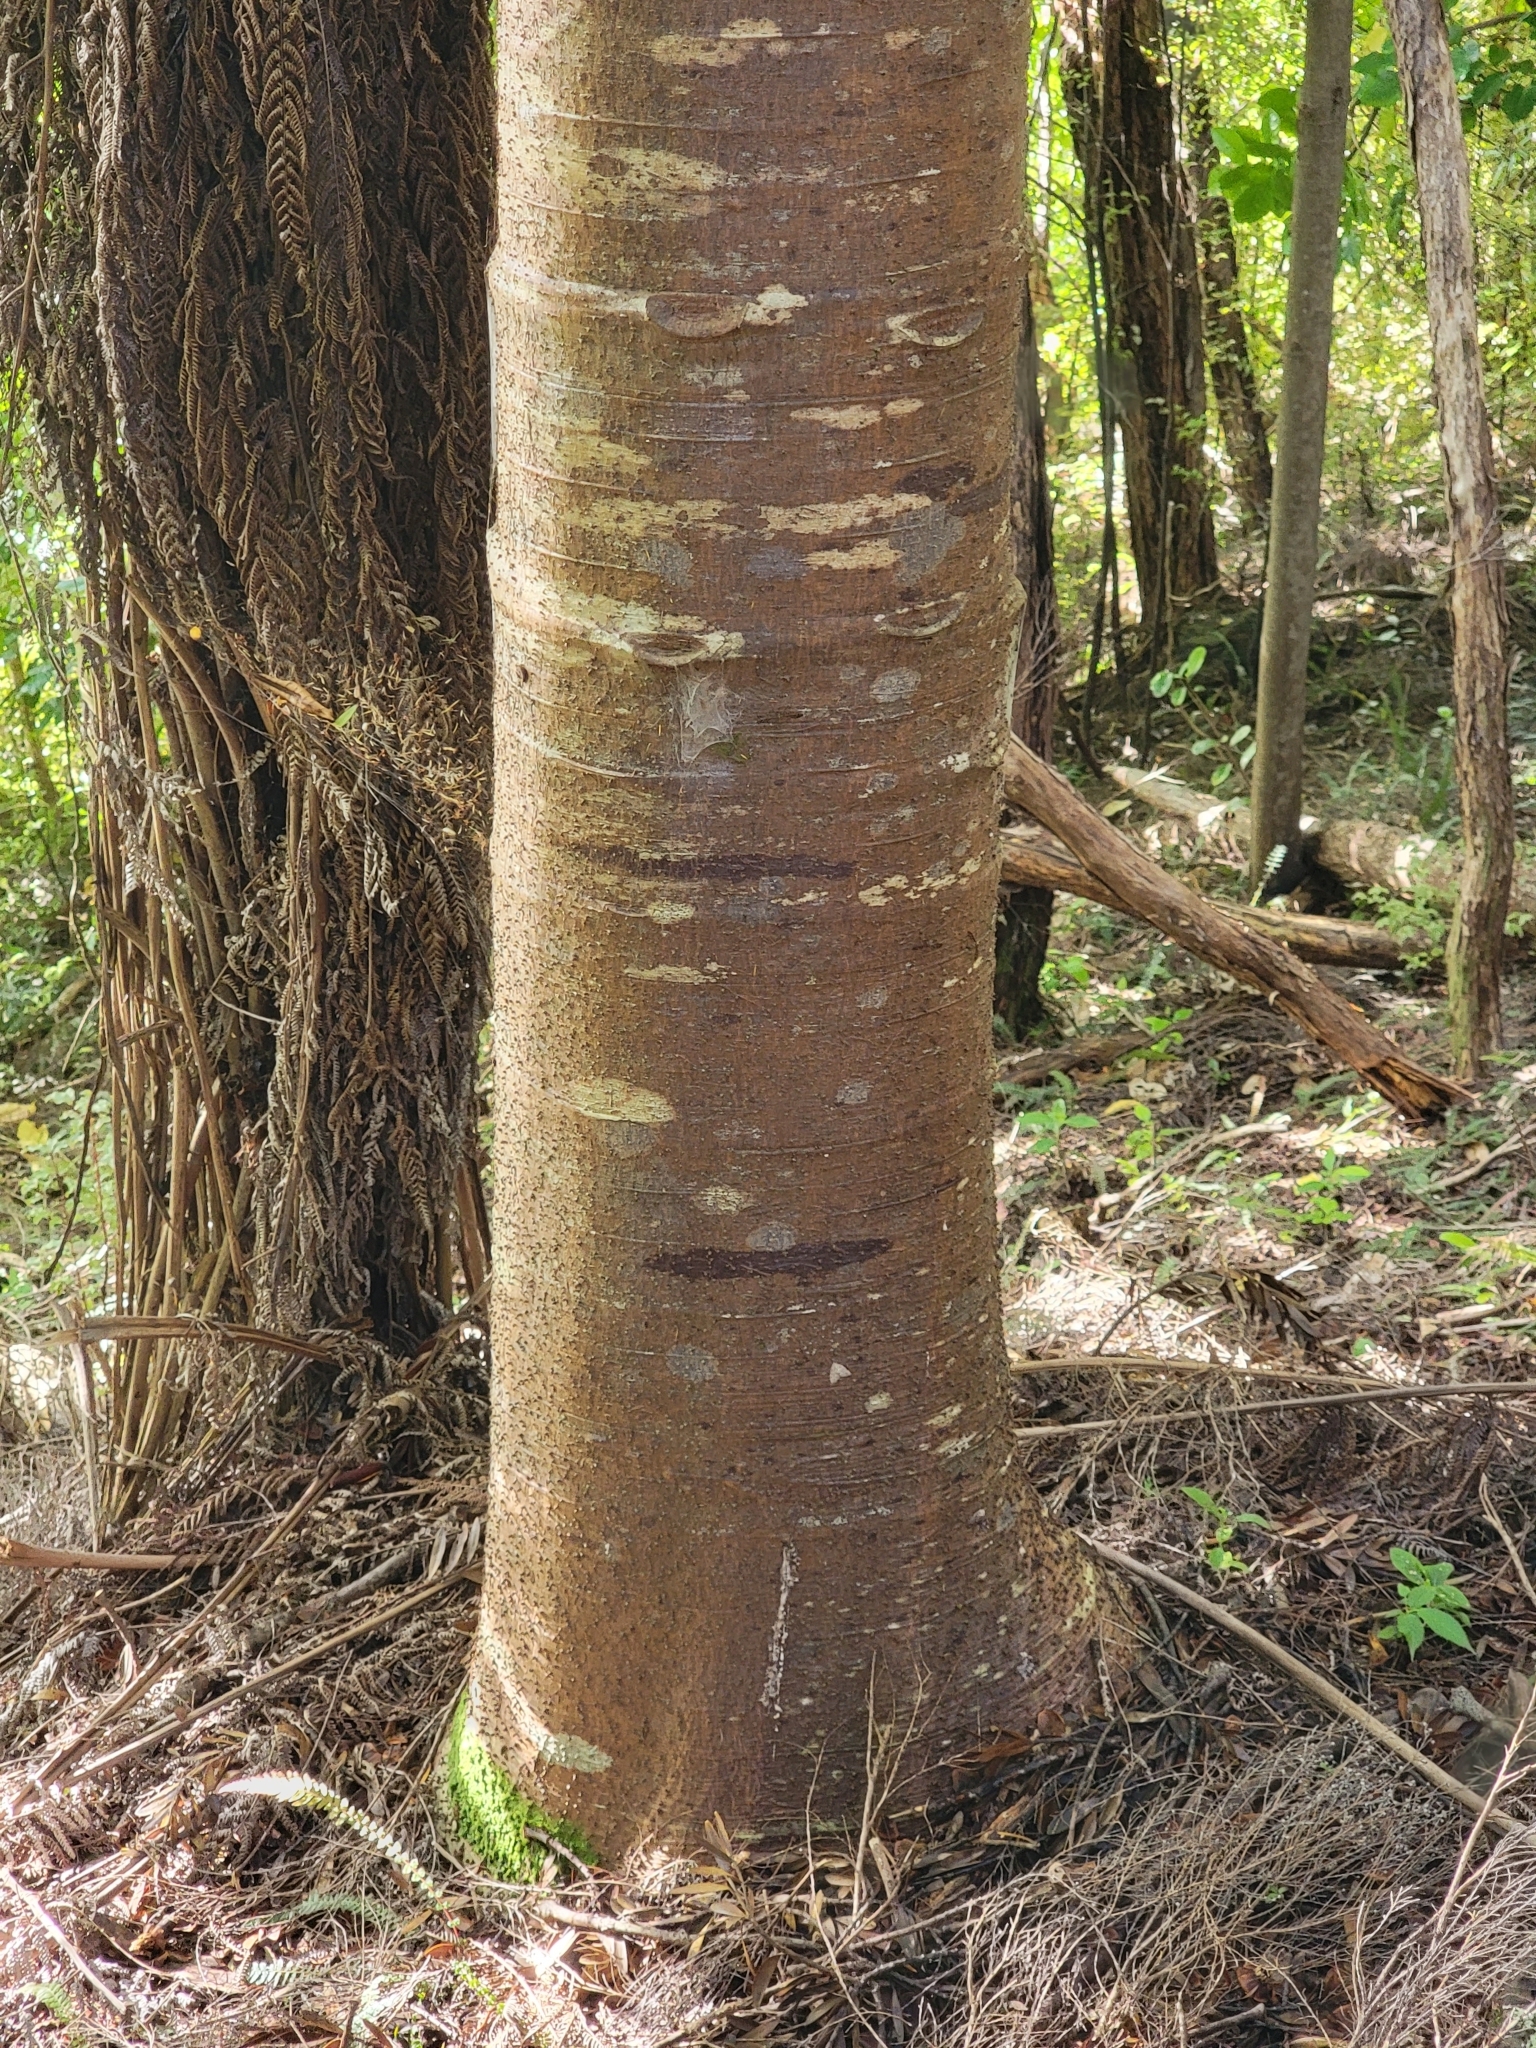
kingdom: Plantae
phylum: Tracheophyta
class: Pinopsida
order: Pinales
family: Araucariaceae
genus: Agathis
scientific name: Agathis australis
